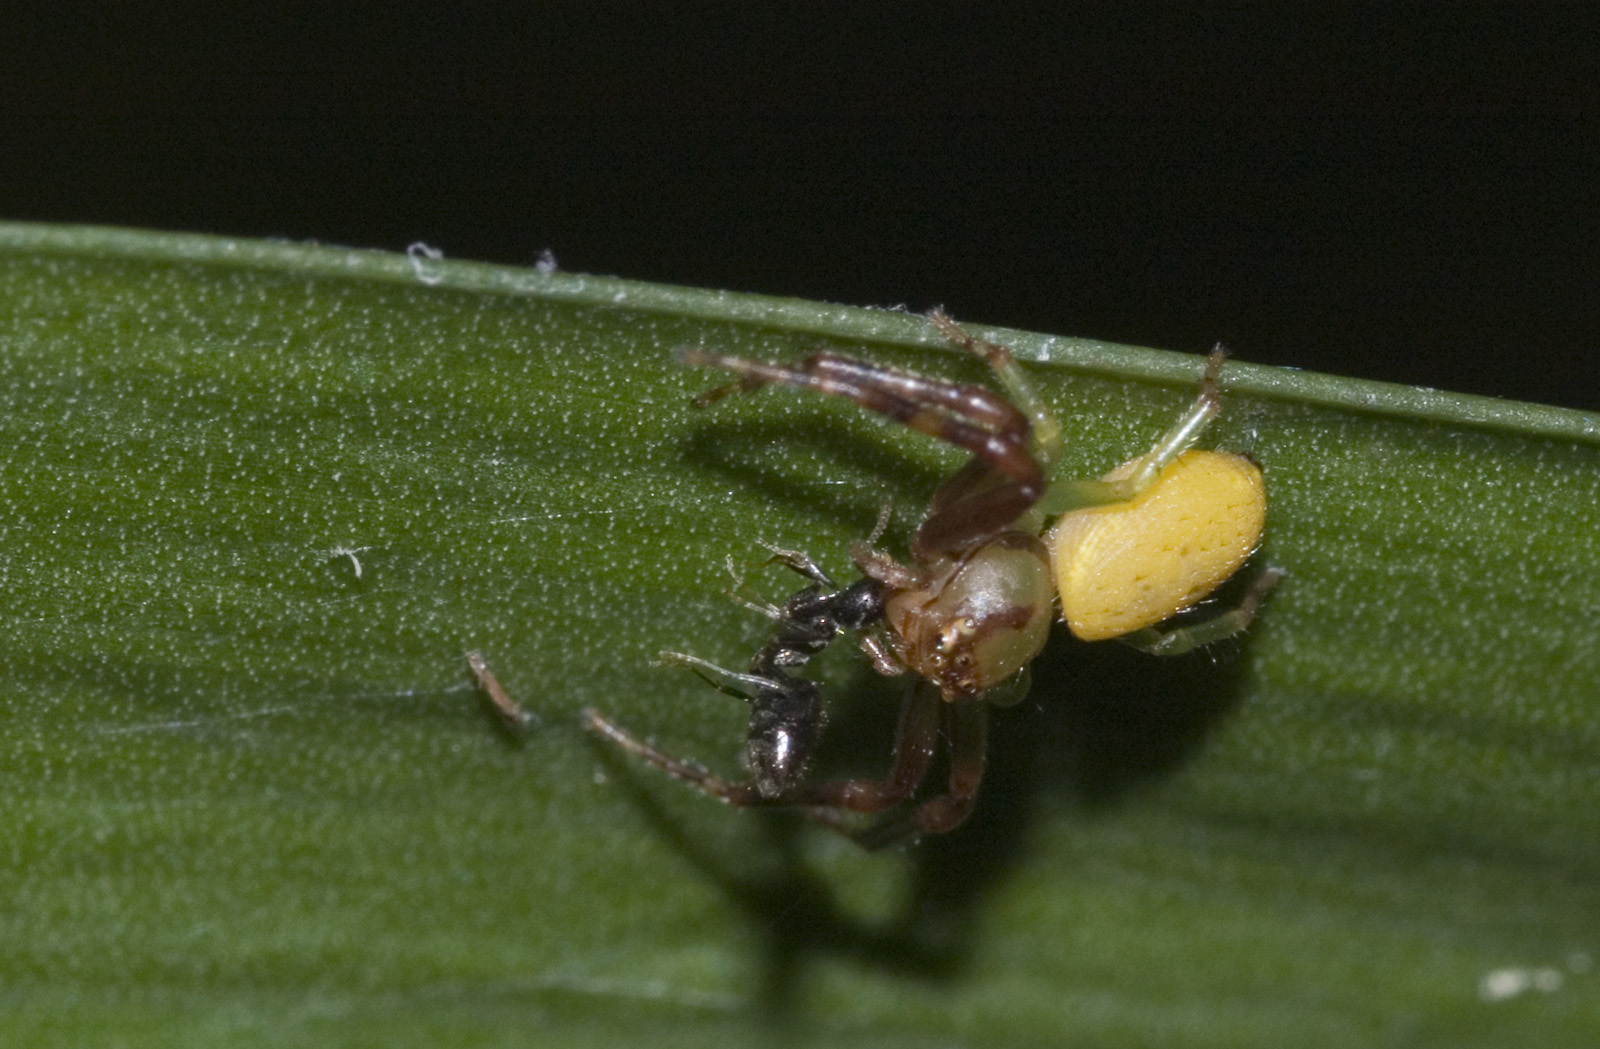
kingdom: Animalia
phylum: Arthropoda
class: Arachnida
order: Araneae
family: Thomisidae
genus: Diaea
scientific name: Diaea ambara
